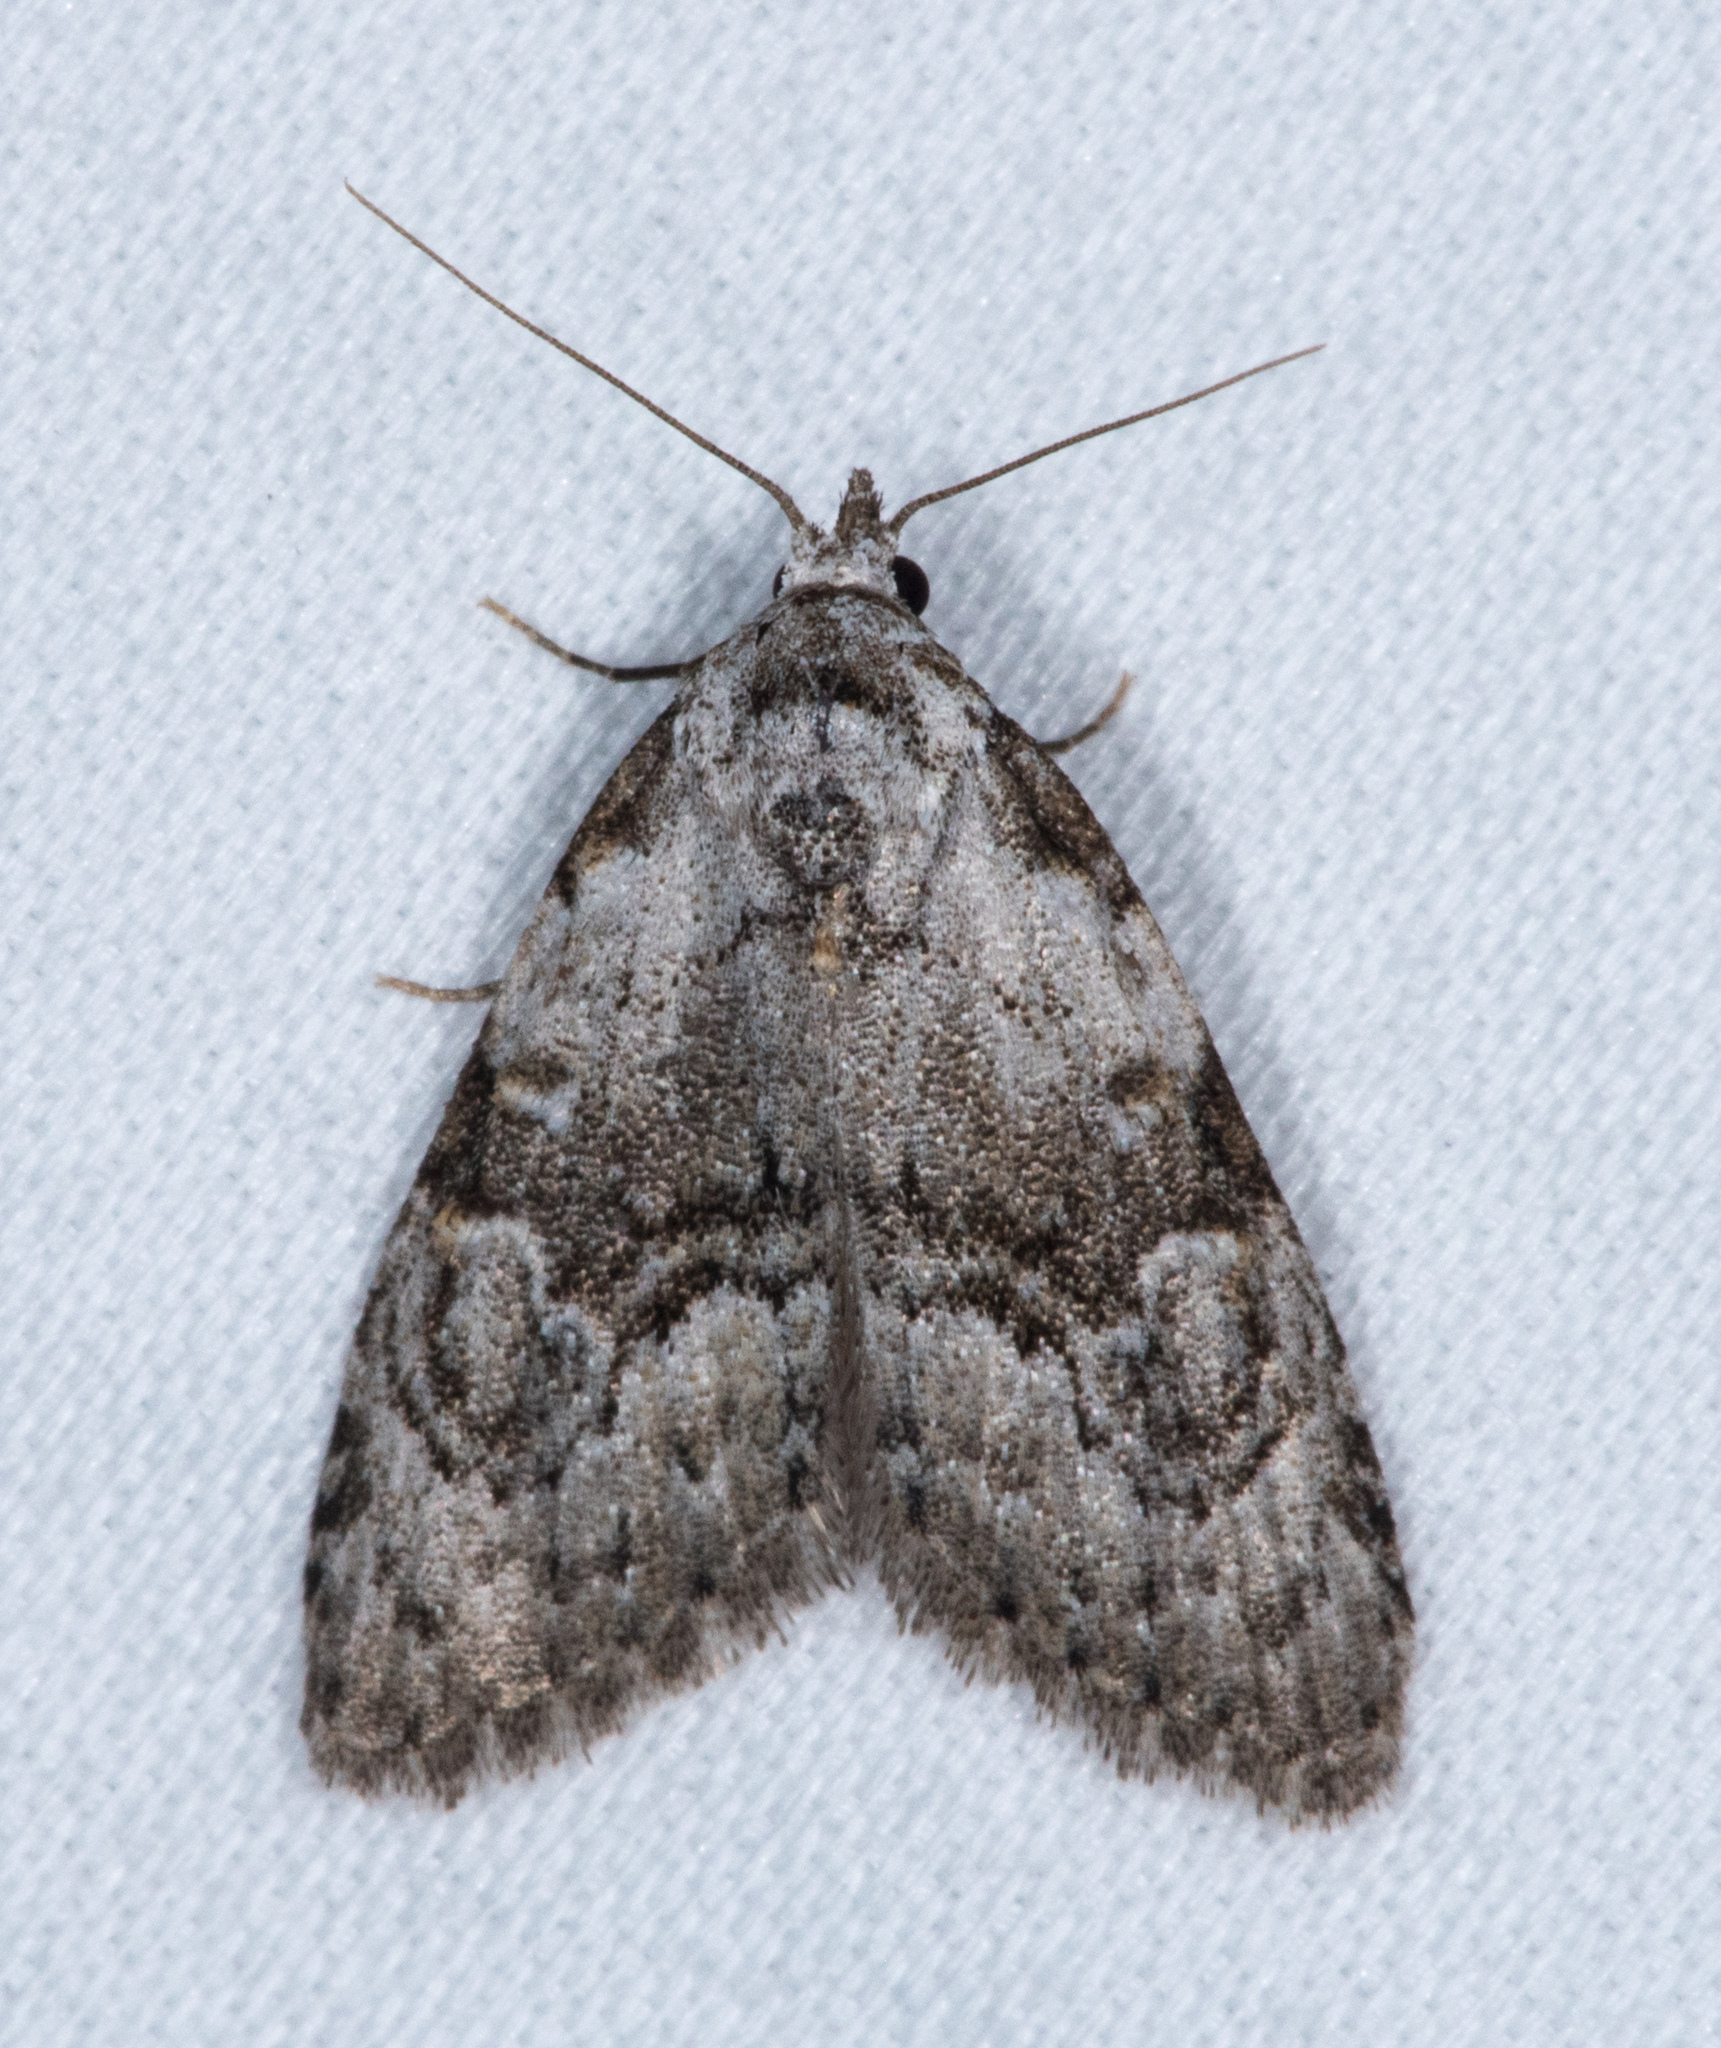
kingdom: Animalia
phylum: Arthropoda
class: Insecta
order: Lepidoptera
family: Nolidae
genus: Meganola
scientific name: Meganola minuscula
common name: Confused meganola moth
